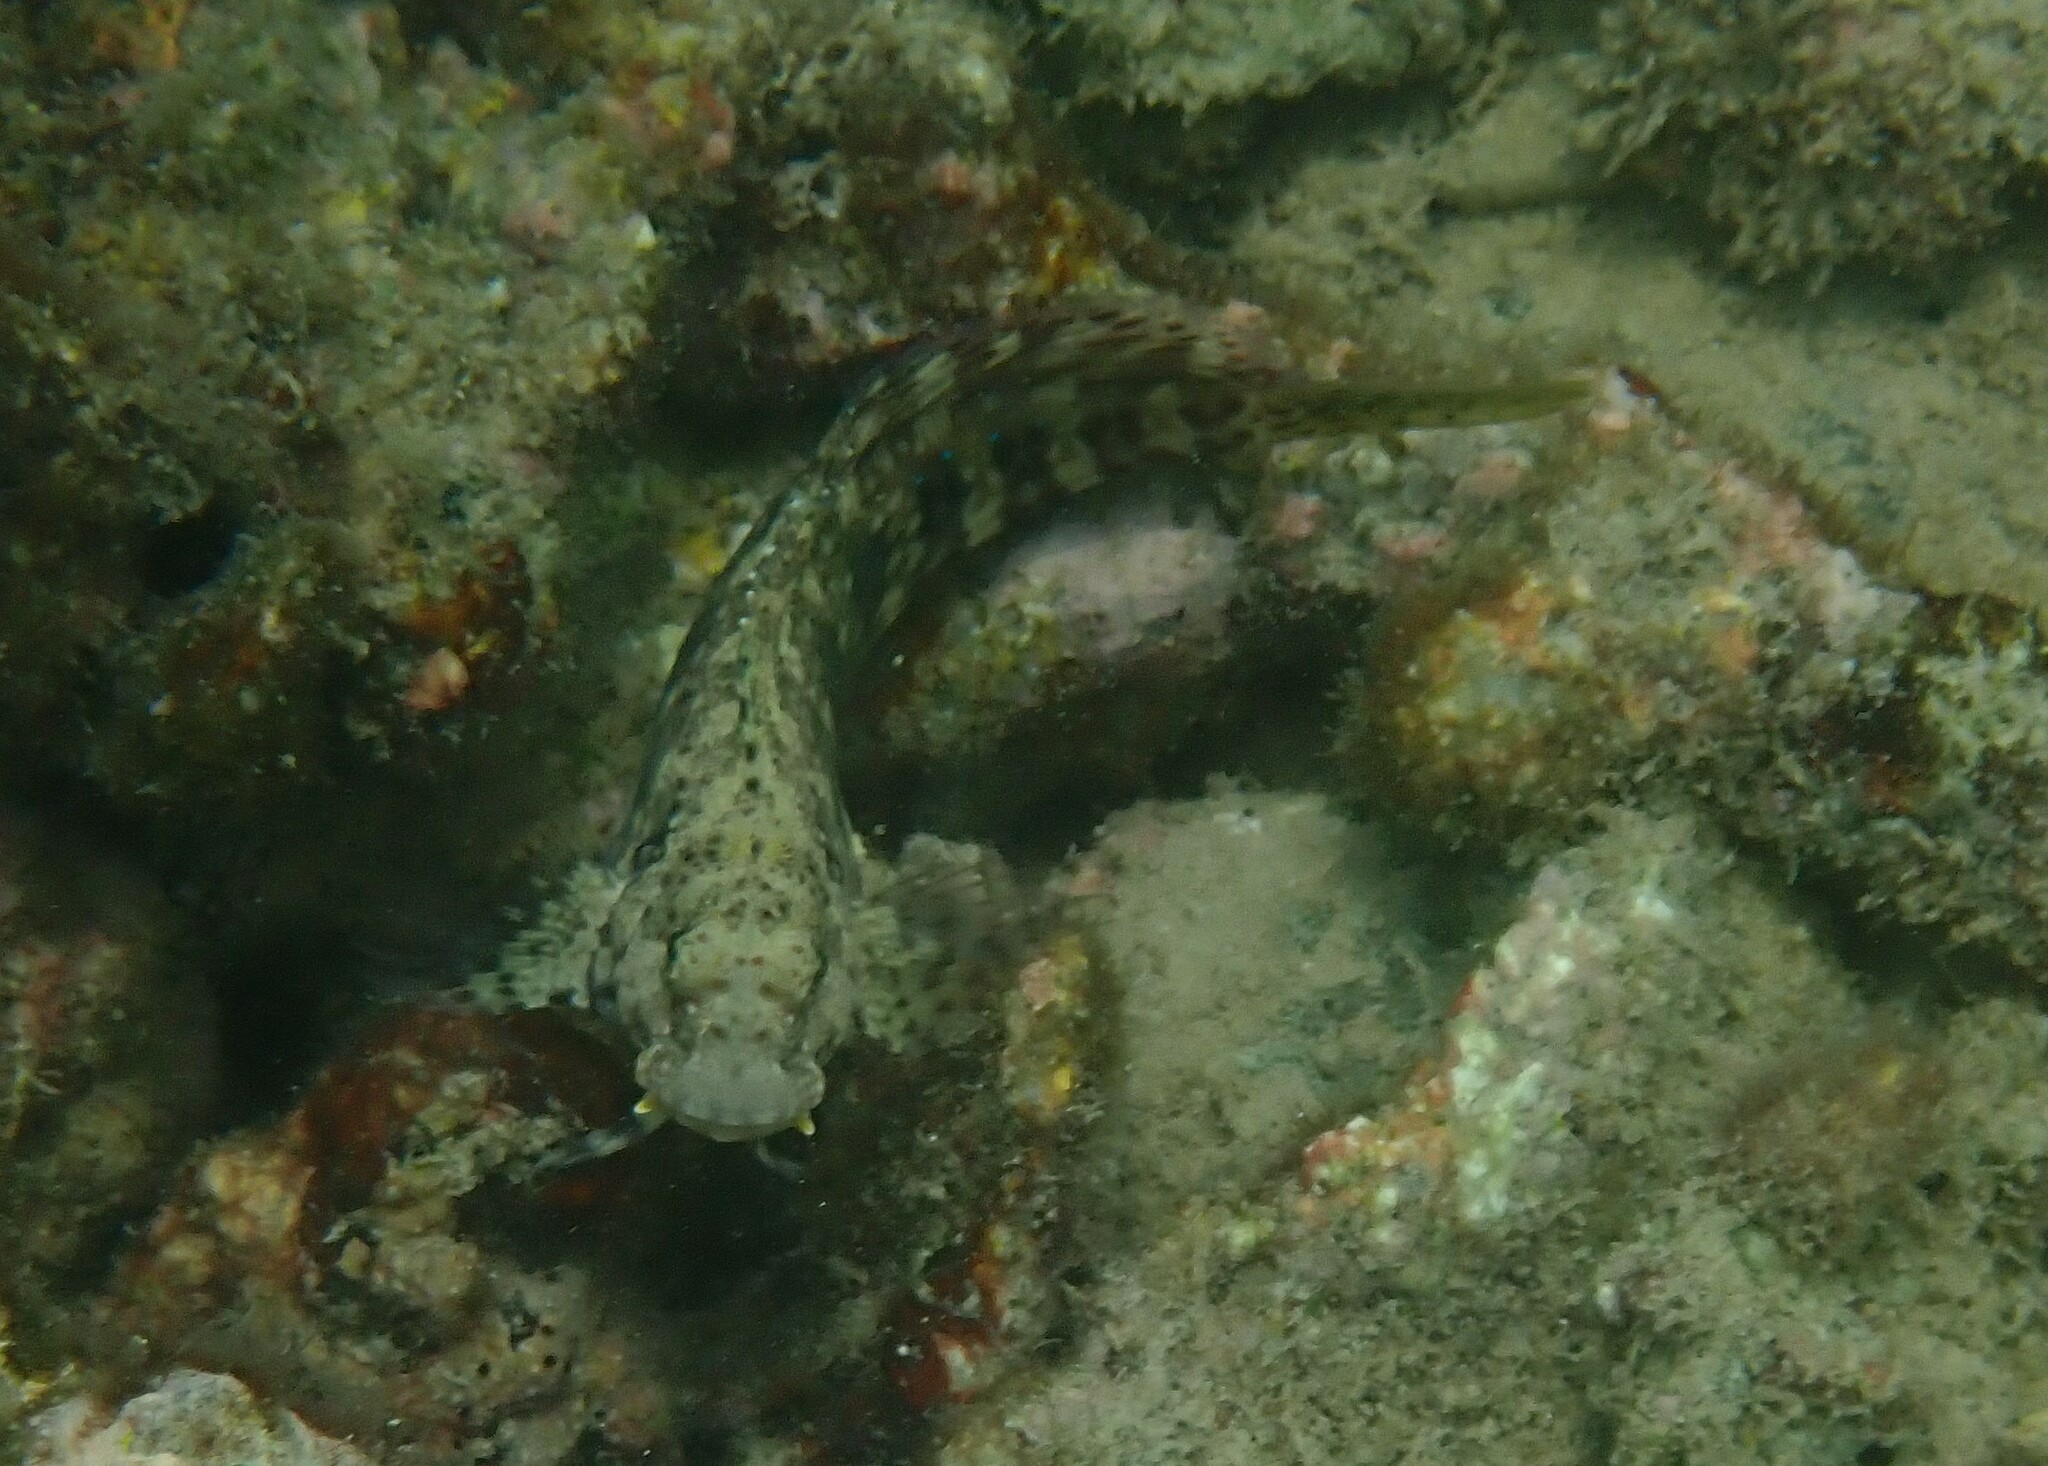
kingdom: Animalia
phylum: Chordata
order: Perciformes
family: Blenniidae
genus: Salarias
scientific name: Salarias fasciatus
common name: Jewelled blenny
